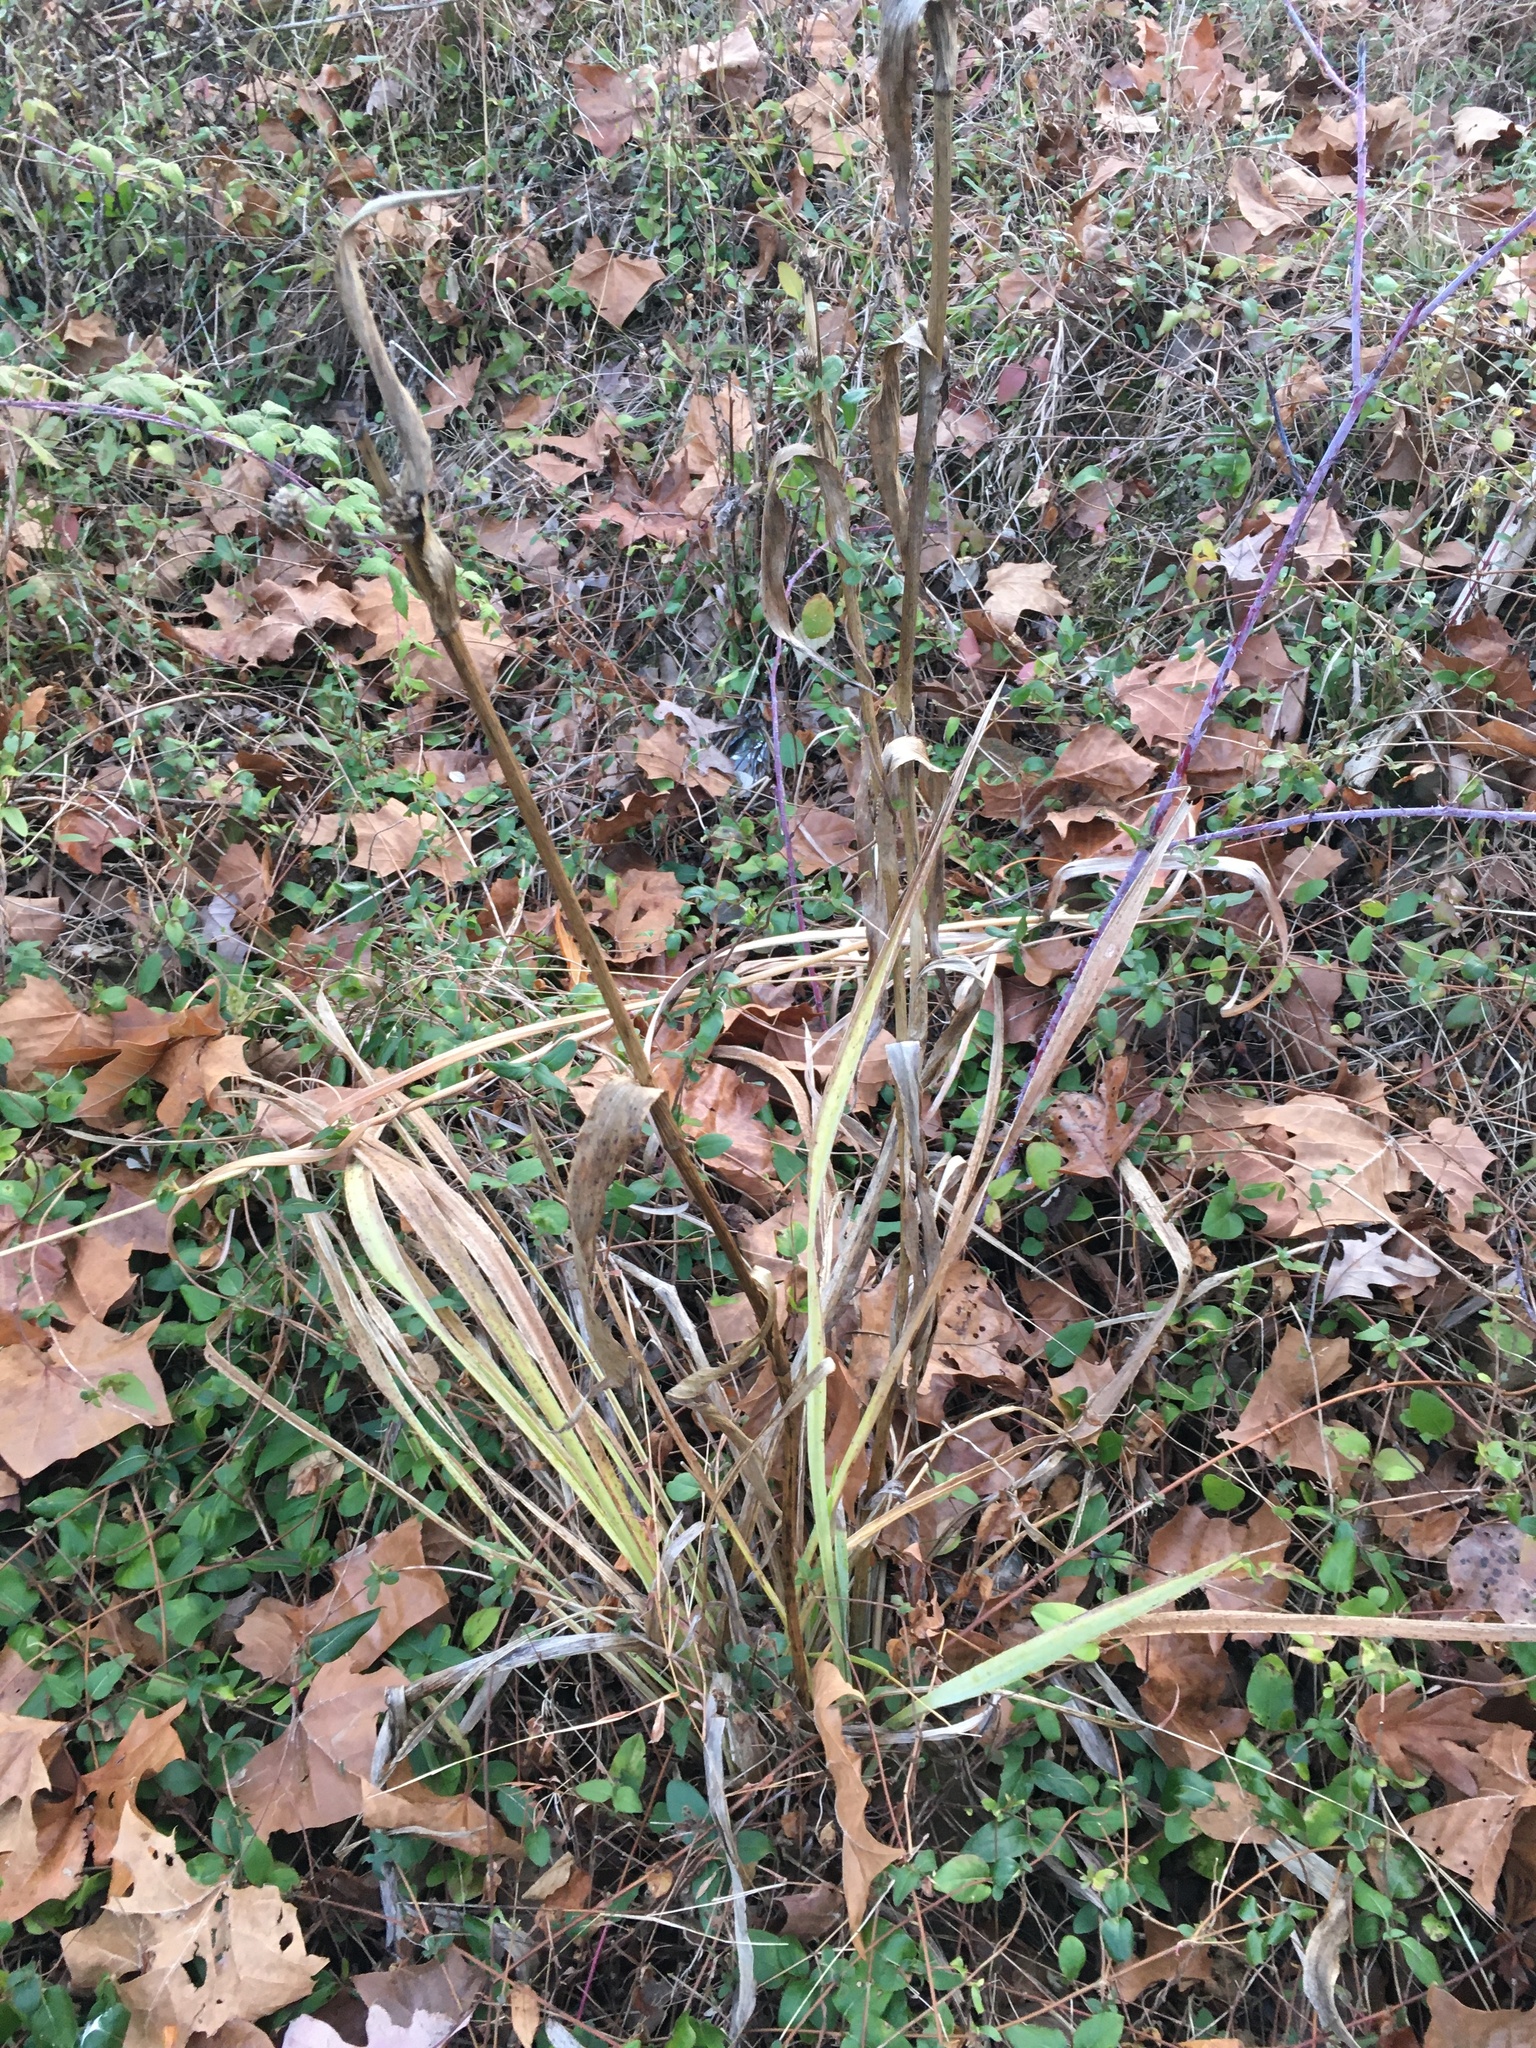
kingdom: Plantae
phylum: Tracheophyta
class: Magnoliopsida
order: Apiales
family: Apiaceae
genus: Eryngium
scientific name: Eryngium yuccifolium
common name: Button eryngo
